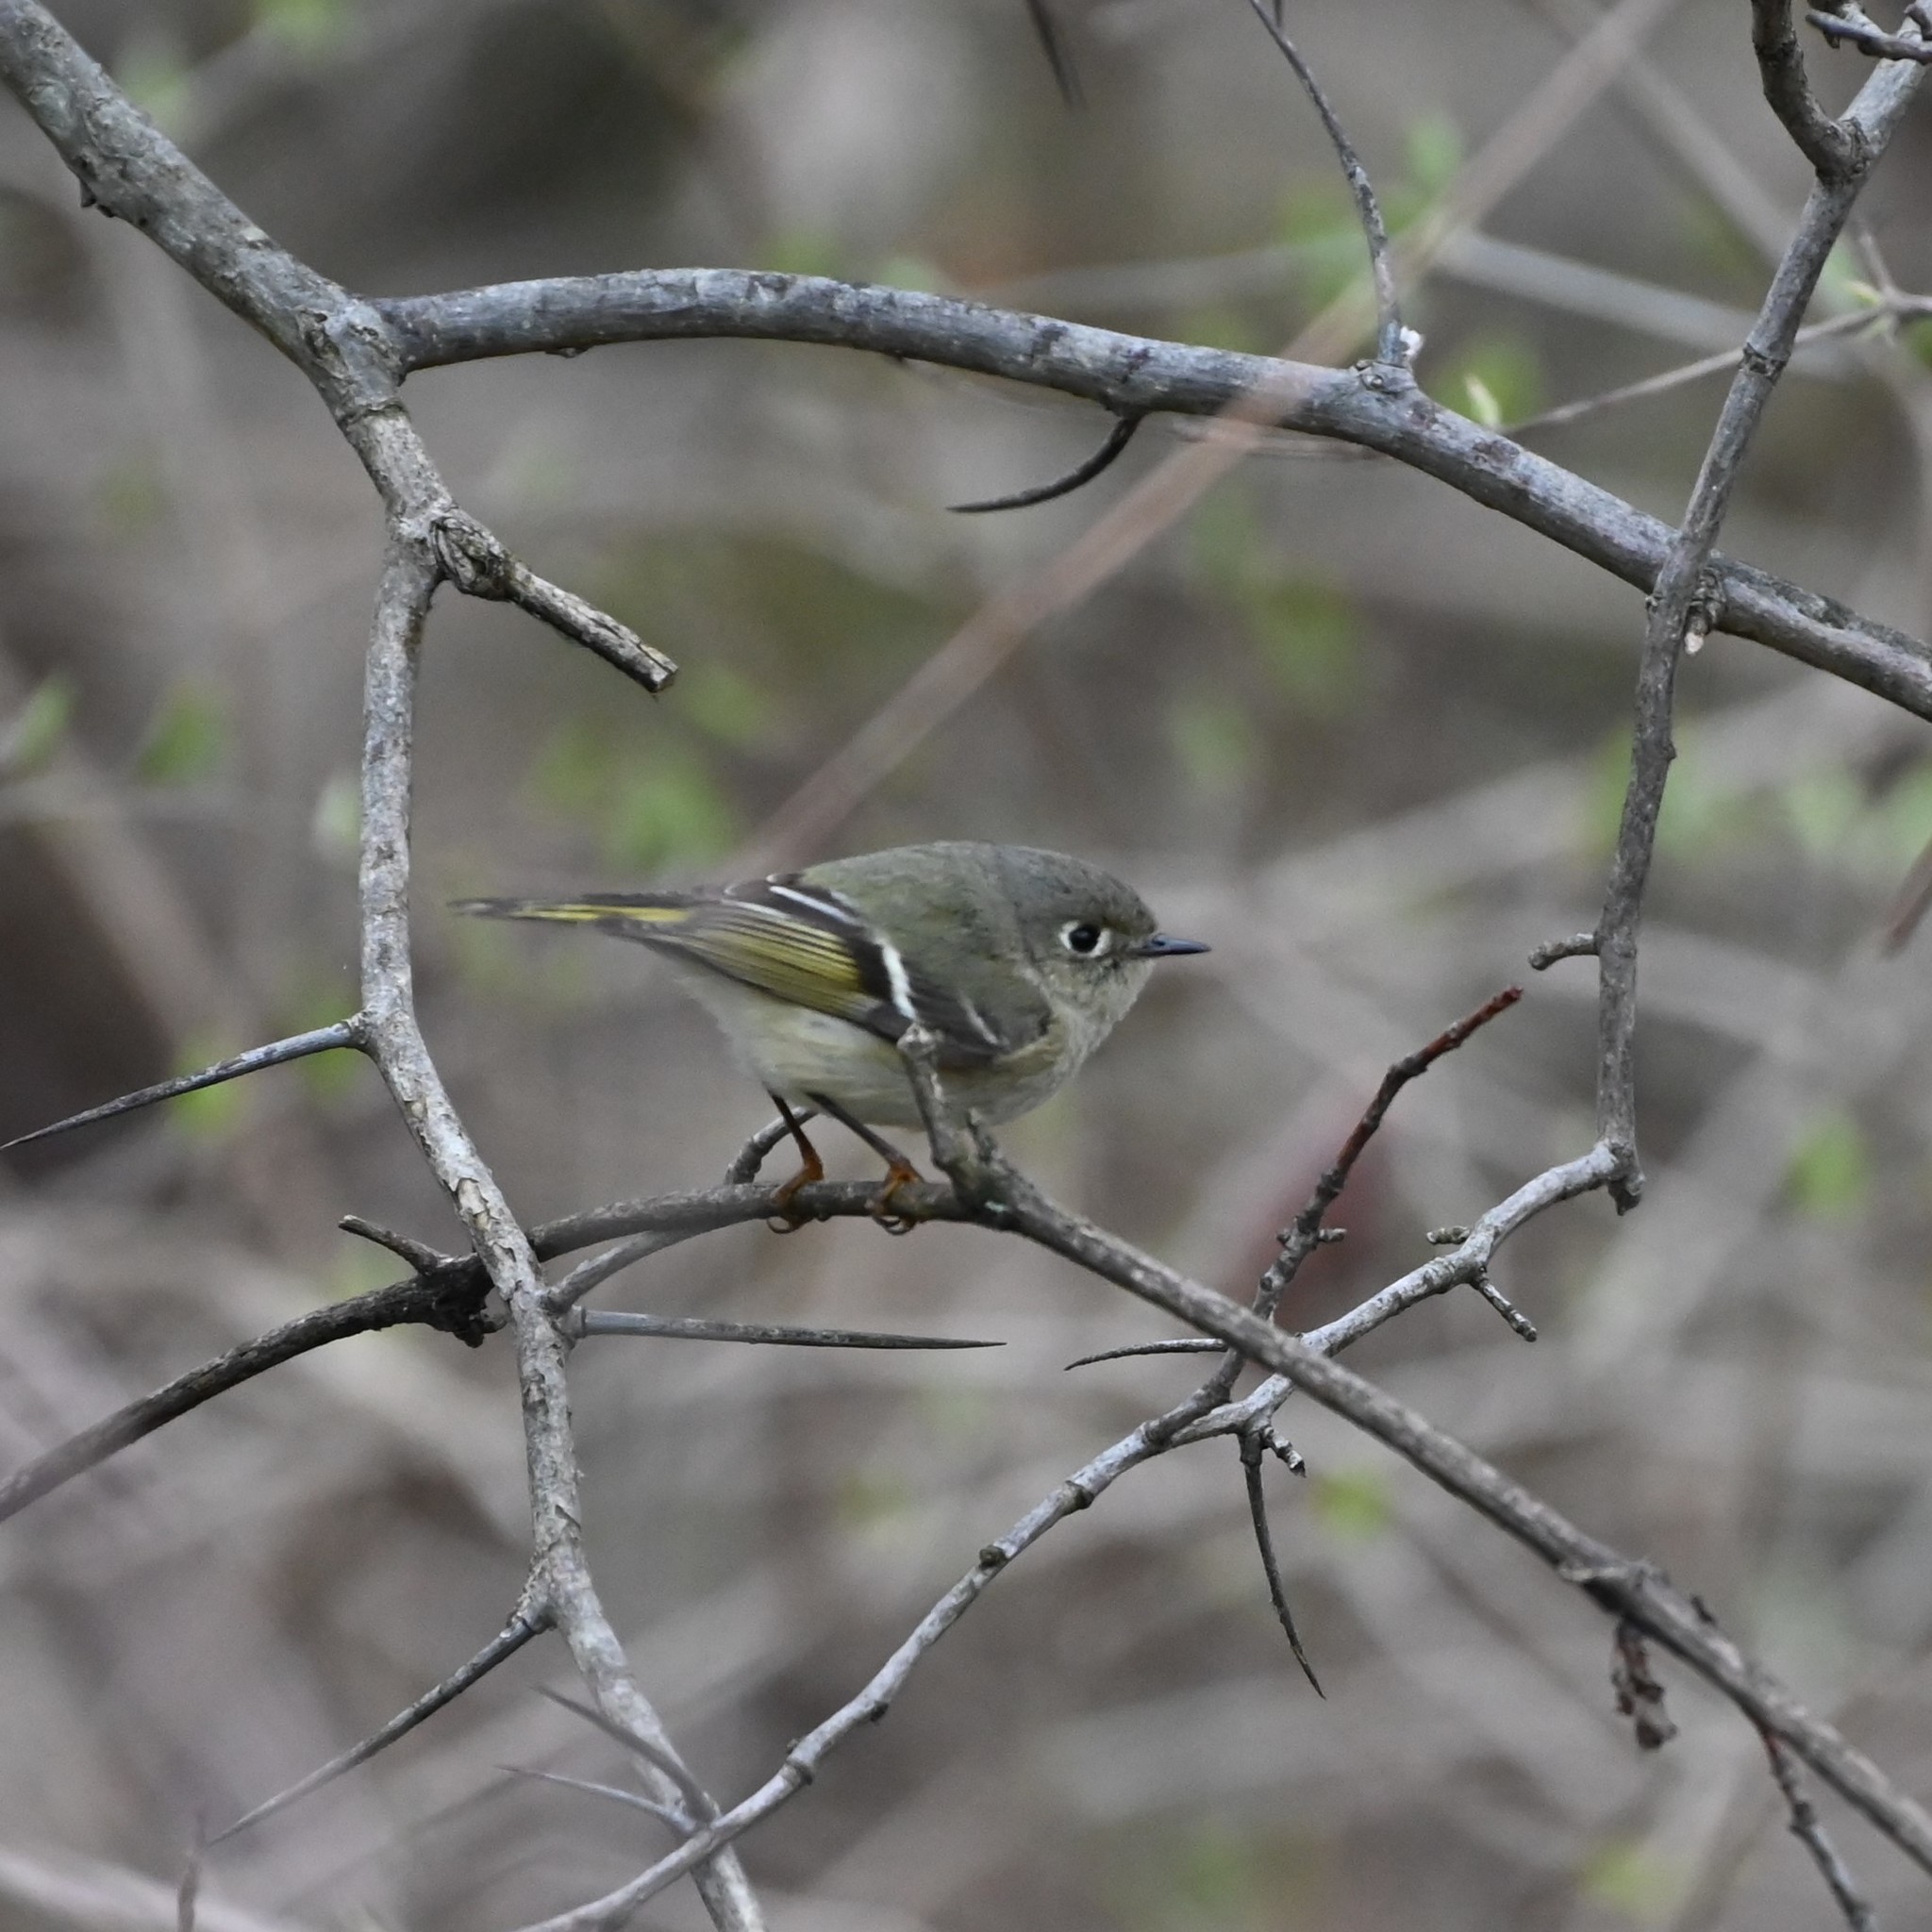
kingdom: Animalia
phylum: Chordata
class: Aves
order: Passeriformes
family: Regulidae
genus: Regulus
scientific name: Regulus calendula
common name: Ruby-crowned kinglet
